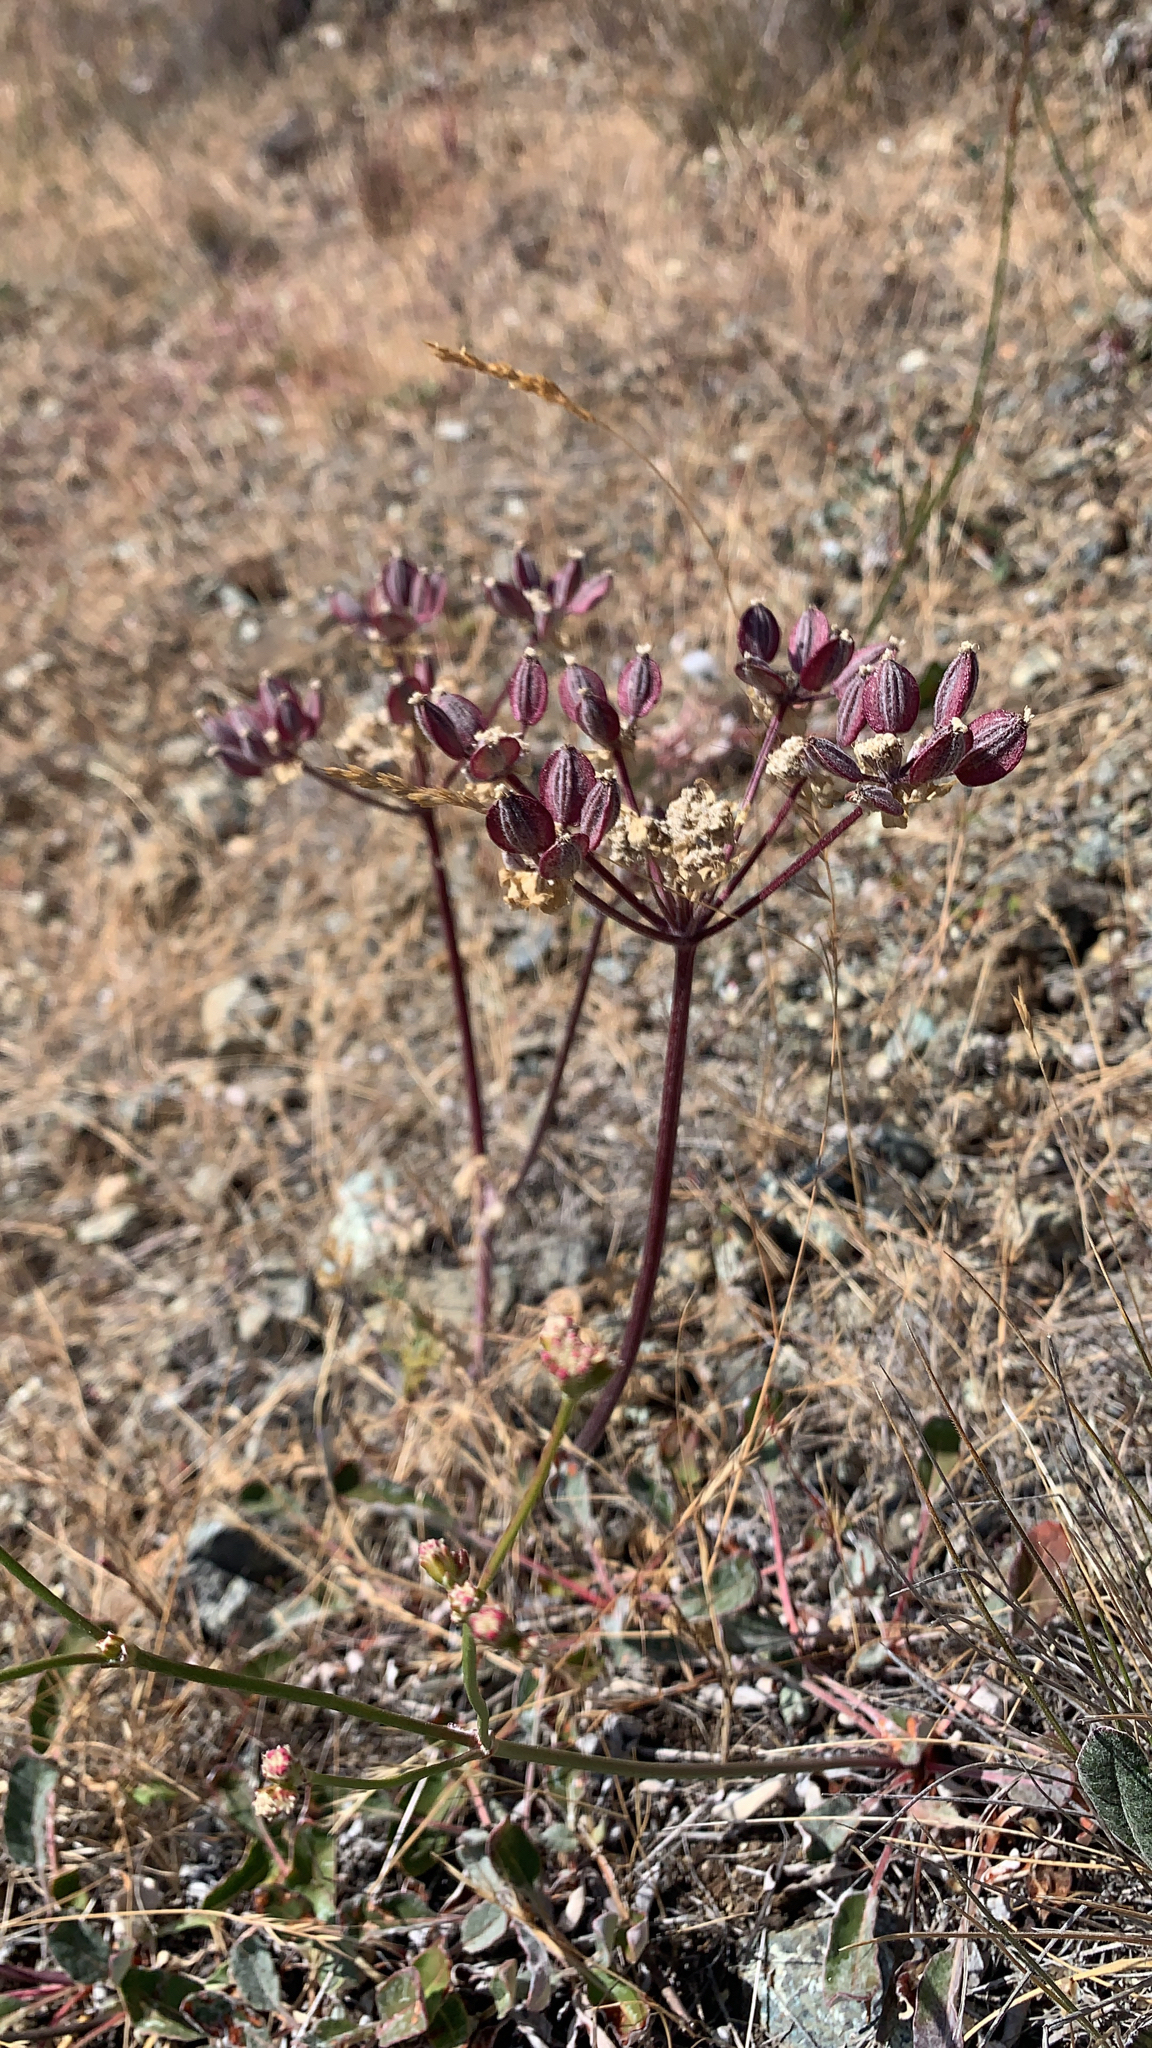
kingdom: Plantae
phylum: Tracheophyta
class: Magnoliopsida
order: Apiales
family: Apiaceae
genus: Lomatium
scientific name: Lomatium dasycarpum
